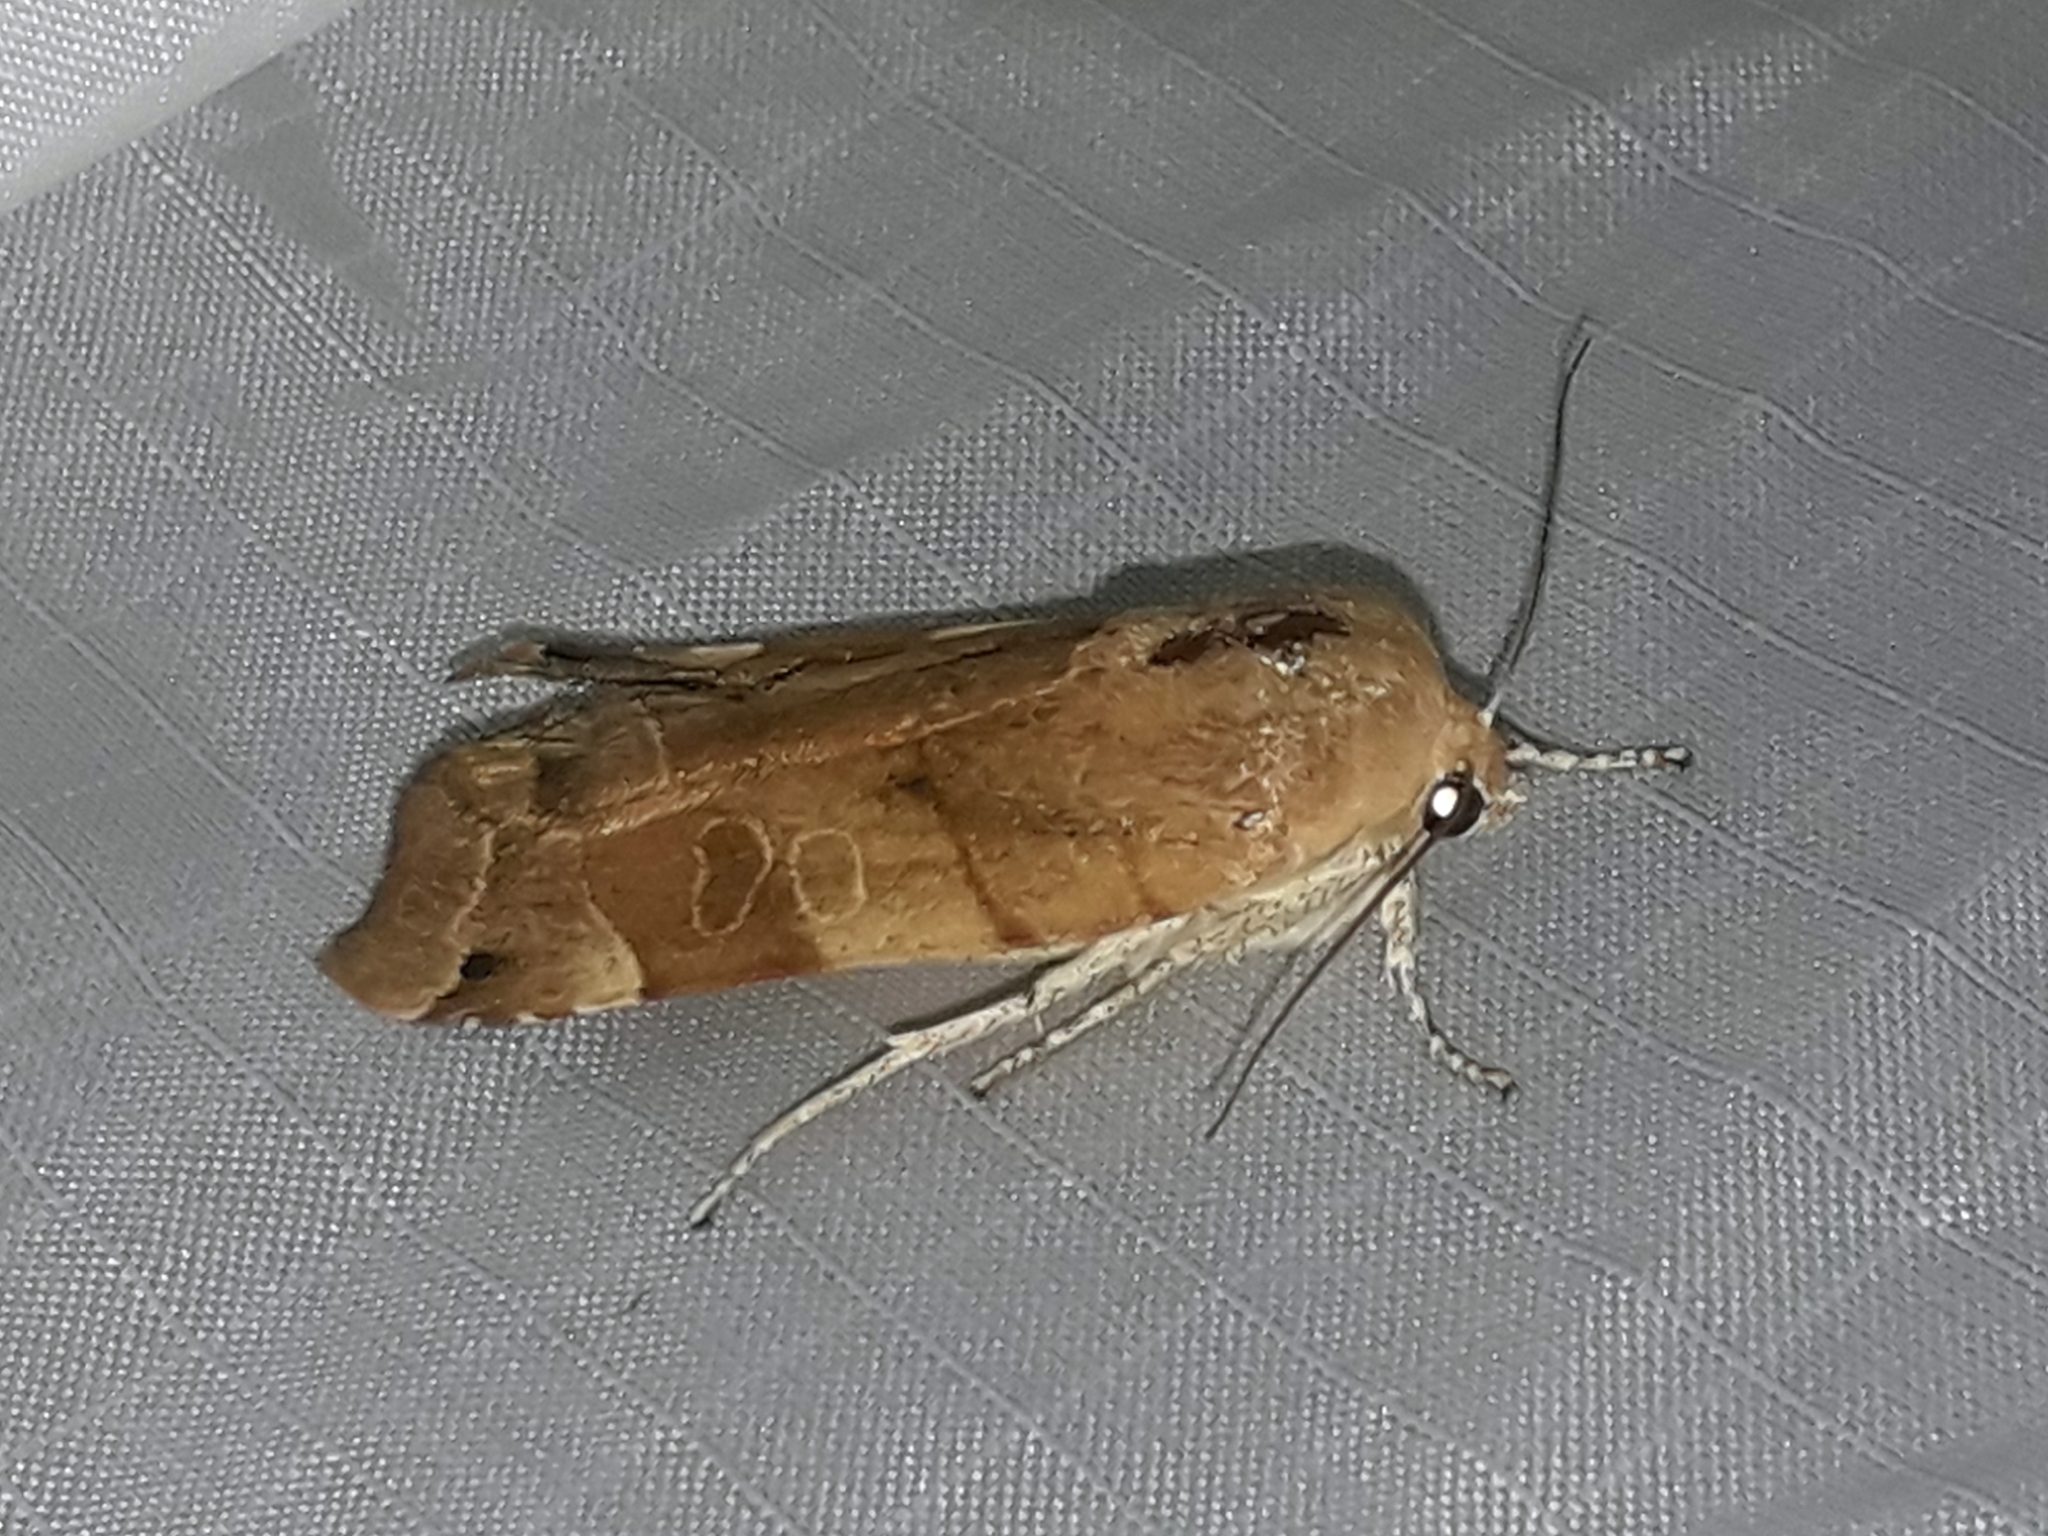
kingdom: Animalia
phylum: Arthropoda
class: Insecta
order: Lepidoptera
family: Noctuidae
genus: Noctua
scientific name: Noctua fimbriata
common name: Broad-bordered yellow underwing
